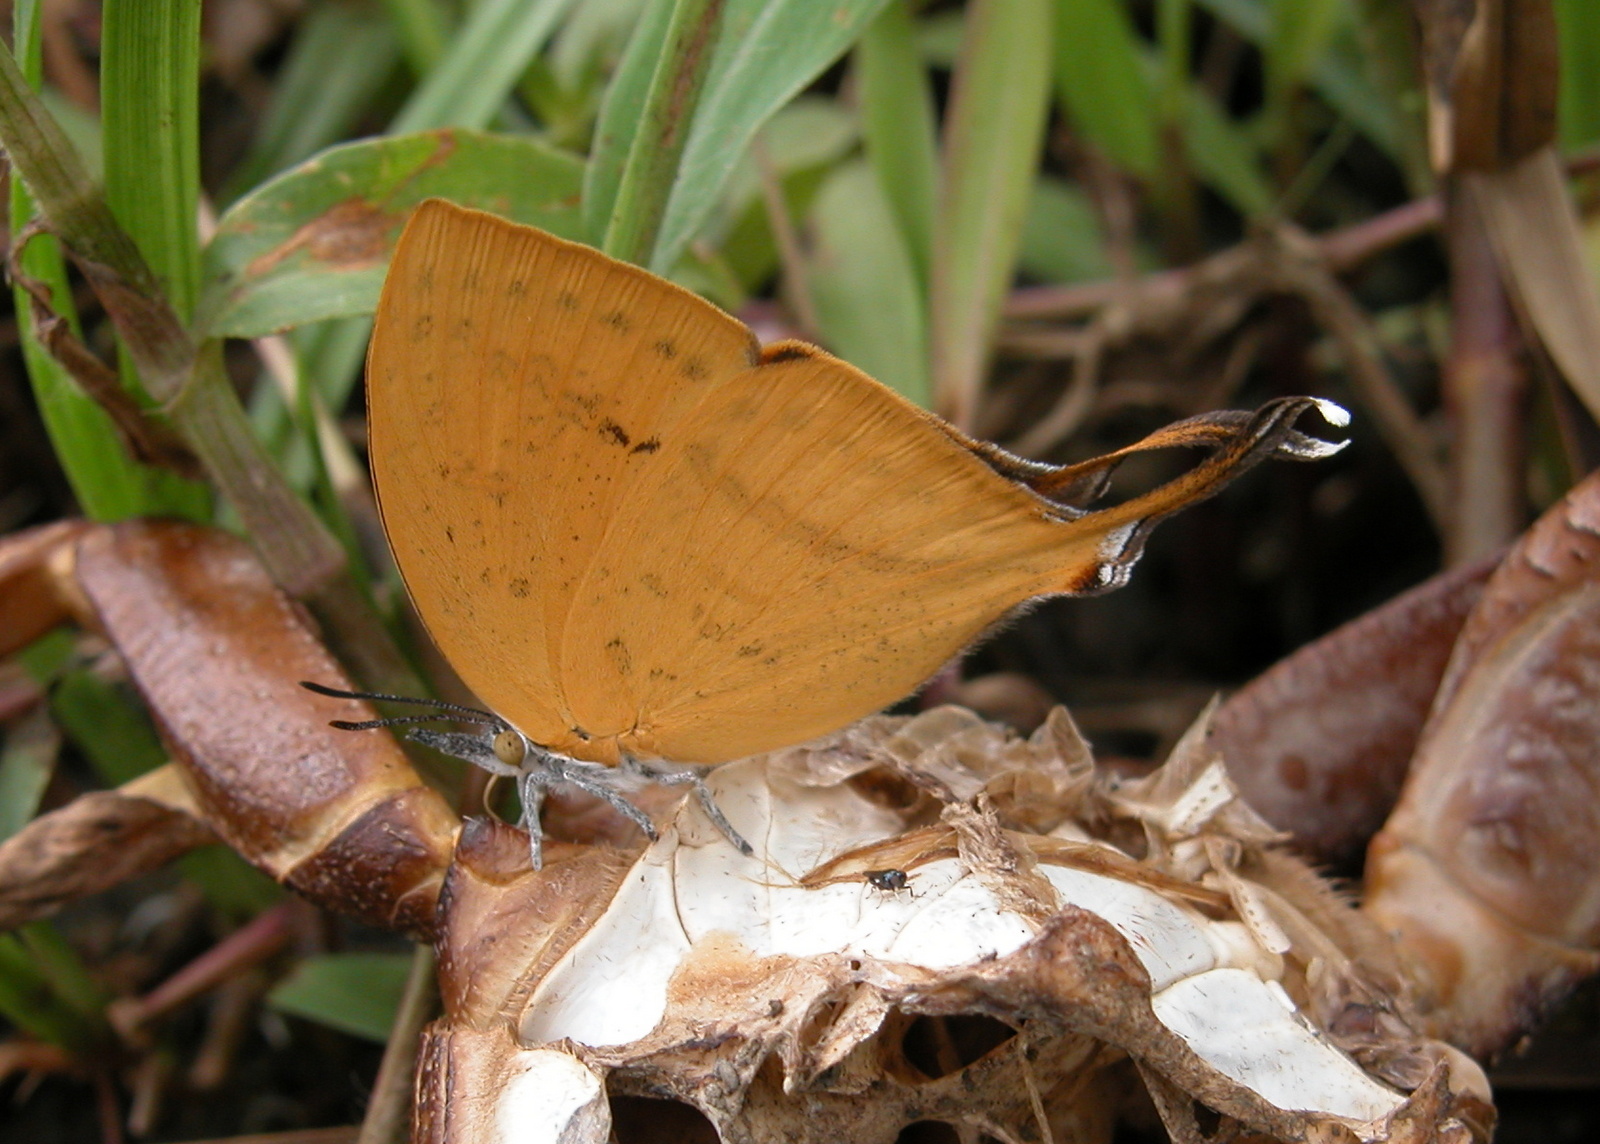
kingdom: Animalia
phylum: Arthropoda
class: Insecta
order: Lepidoptera
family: Lycaenidae
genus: Loxura
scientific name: Loxura atymnus
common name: Common yamfly
